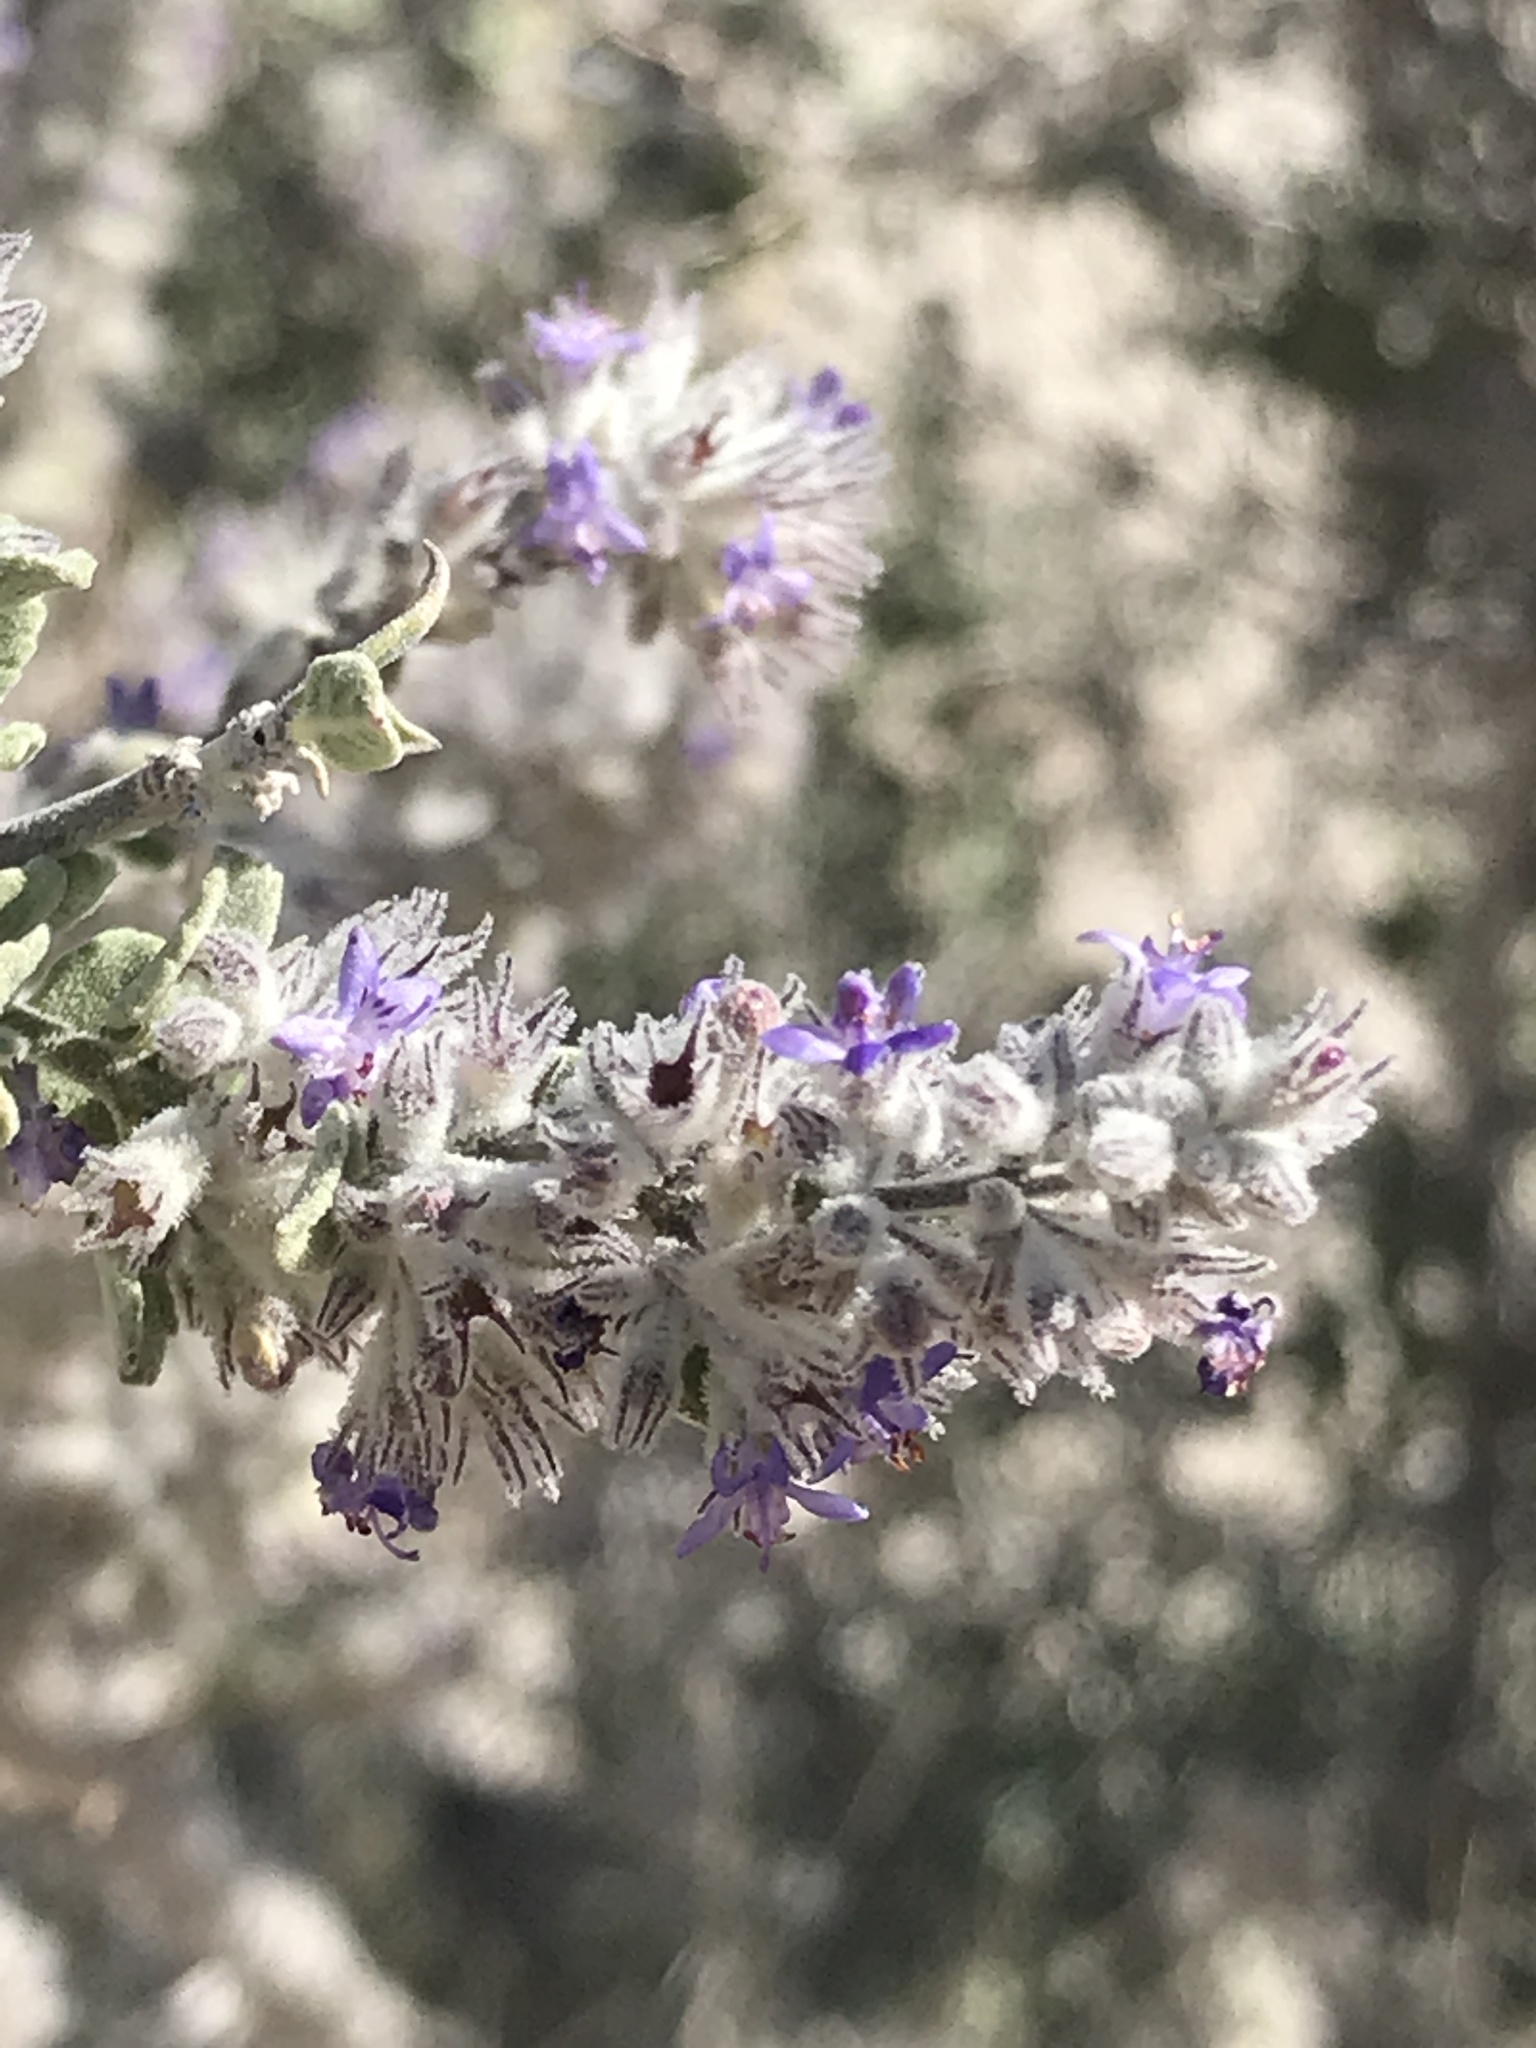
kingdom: Plantae
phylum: Tracheophyta
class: Magnoliopsida
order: Lamiales
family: Lamiaceae
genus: Condea
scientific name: Condea emoryi
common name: Chia
